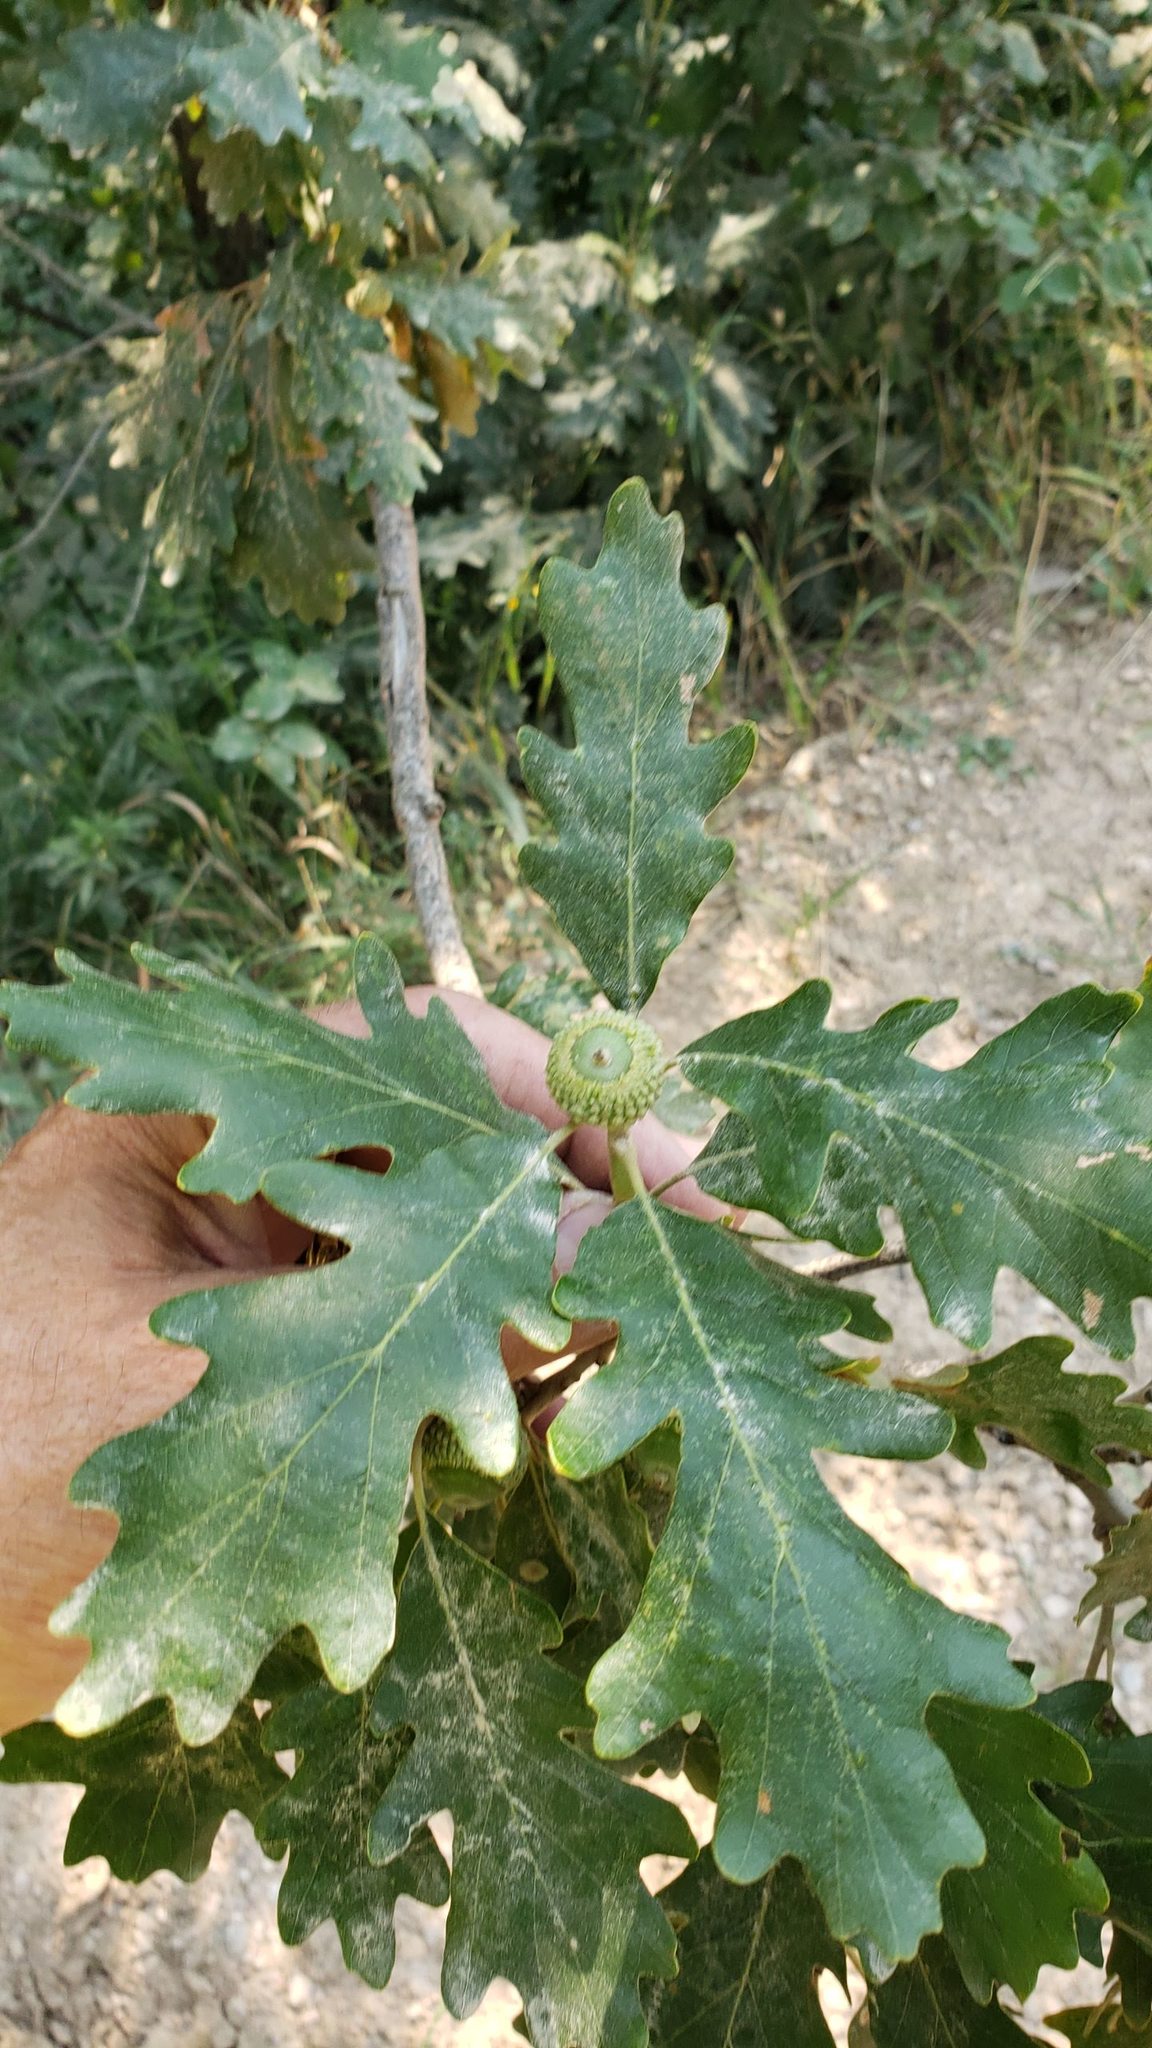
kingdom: Plantae
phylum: Tracheophyta
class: Magnoliopsida
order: Fagales
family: Fagaceae
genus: Quercus
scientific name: Quercus macrocarpa
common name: Bur oak
